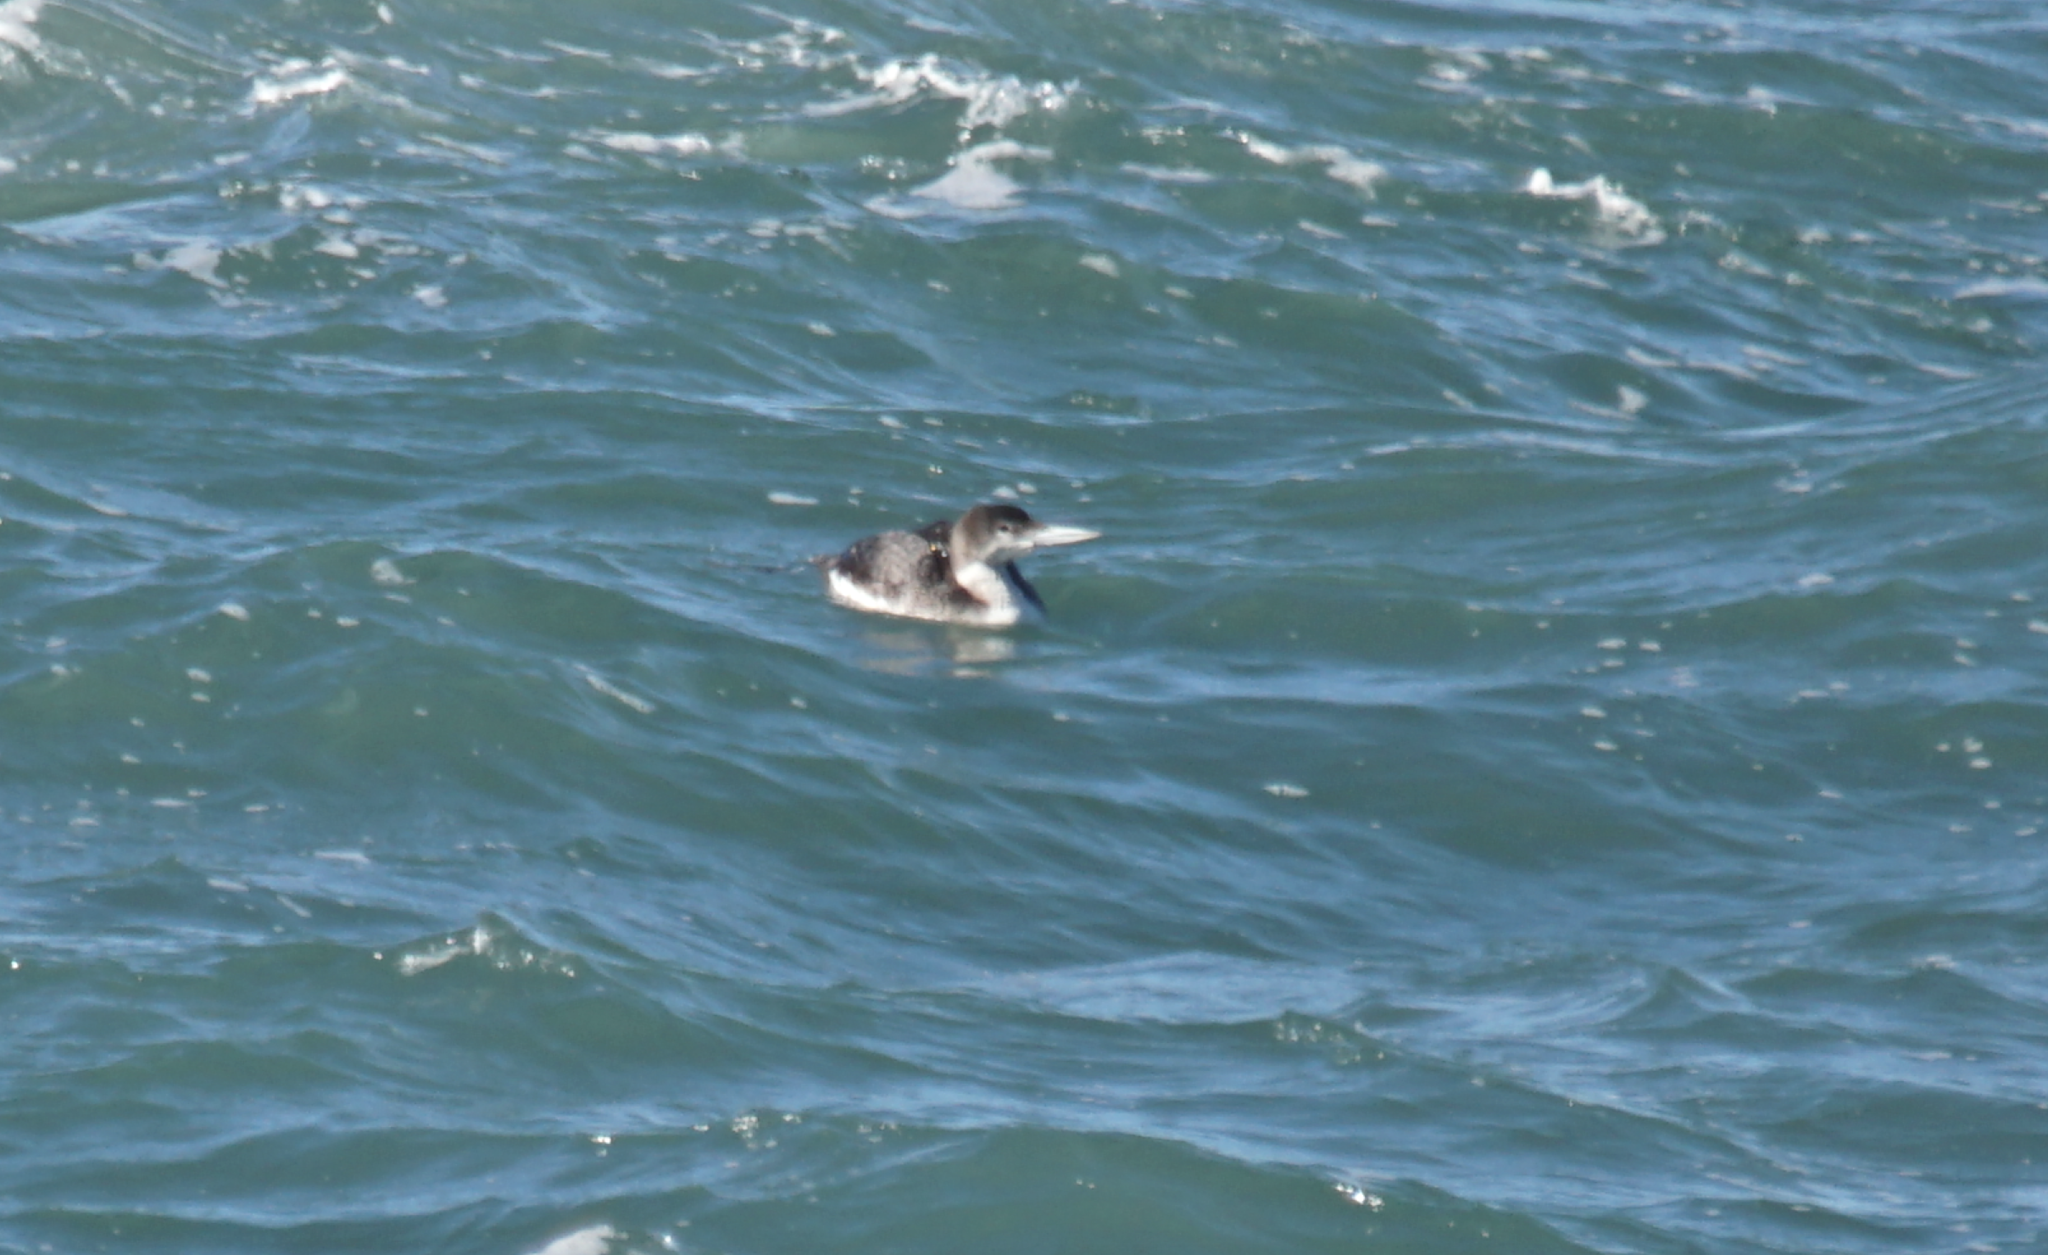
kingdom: Animalia
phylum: Chordata
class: Aves
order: Gaviiformes
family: Gaviidae
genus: Gavia
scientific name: Gavia immer
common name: Common loon
